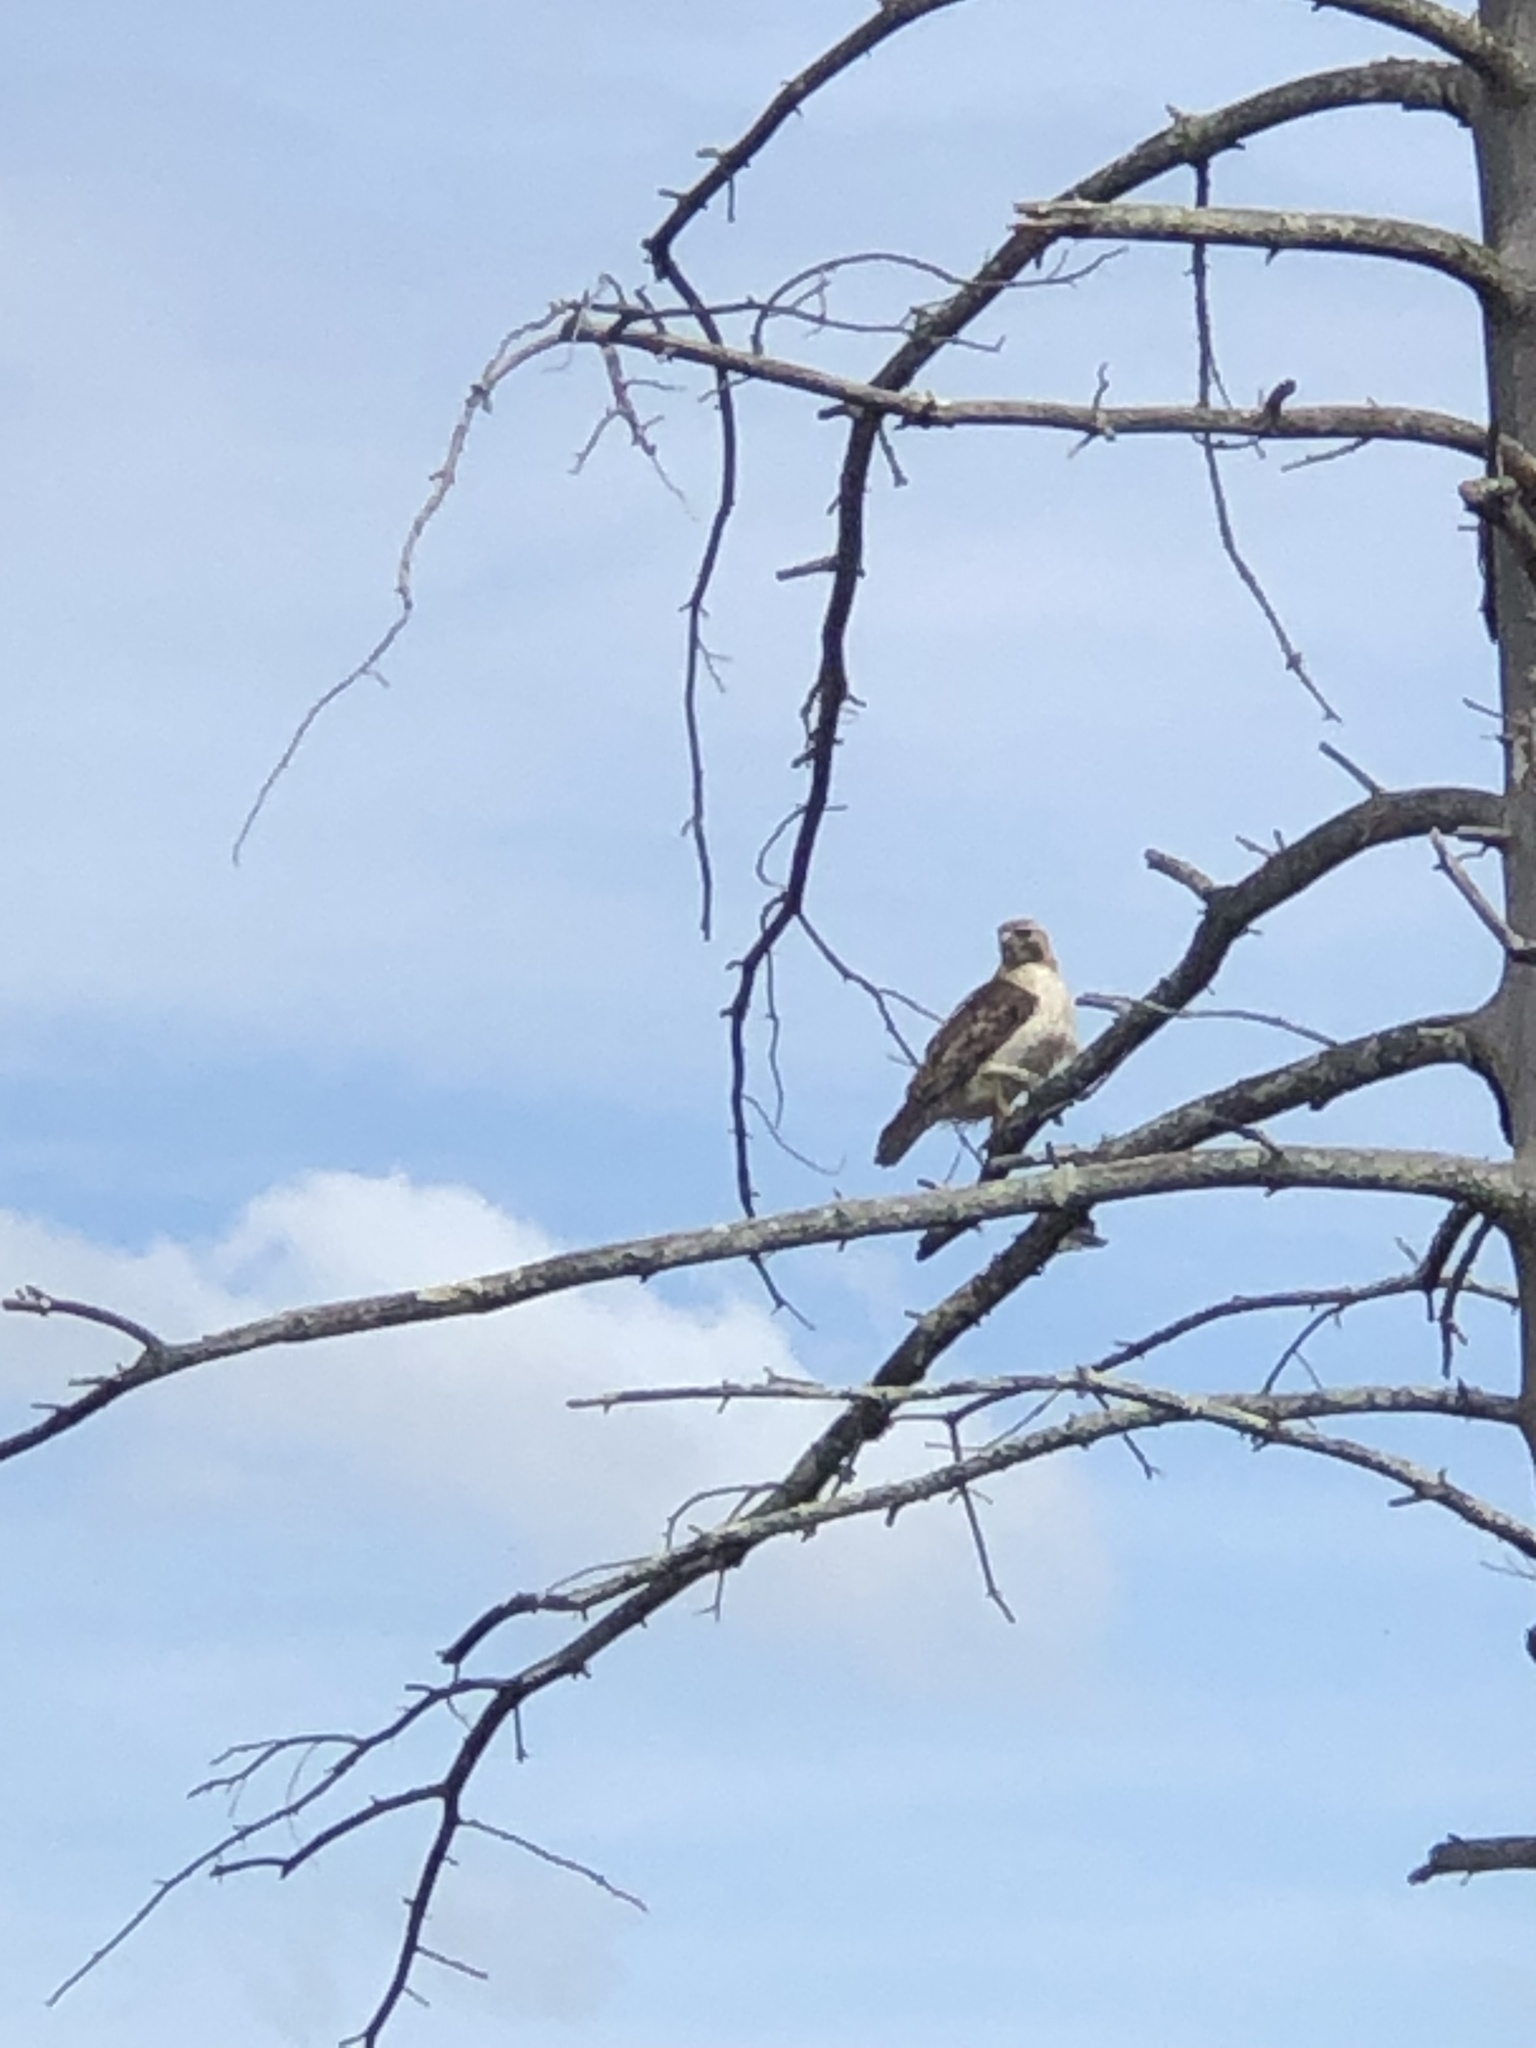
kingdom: Animalia
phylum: Chordata
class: Aves
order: Accipitriformes
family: Accipitridae
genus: Buteo
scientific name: Buteo jamaicensis
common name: Red-tailed hawk
